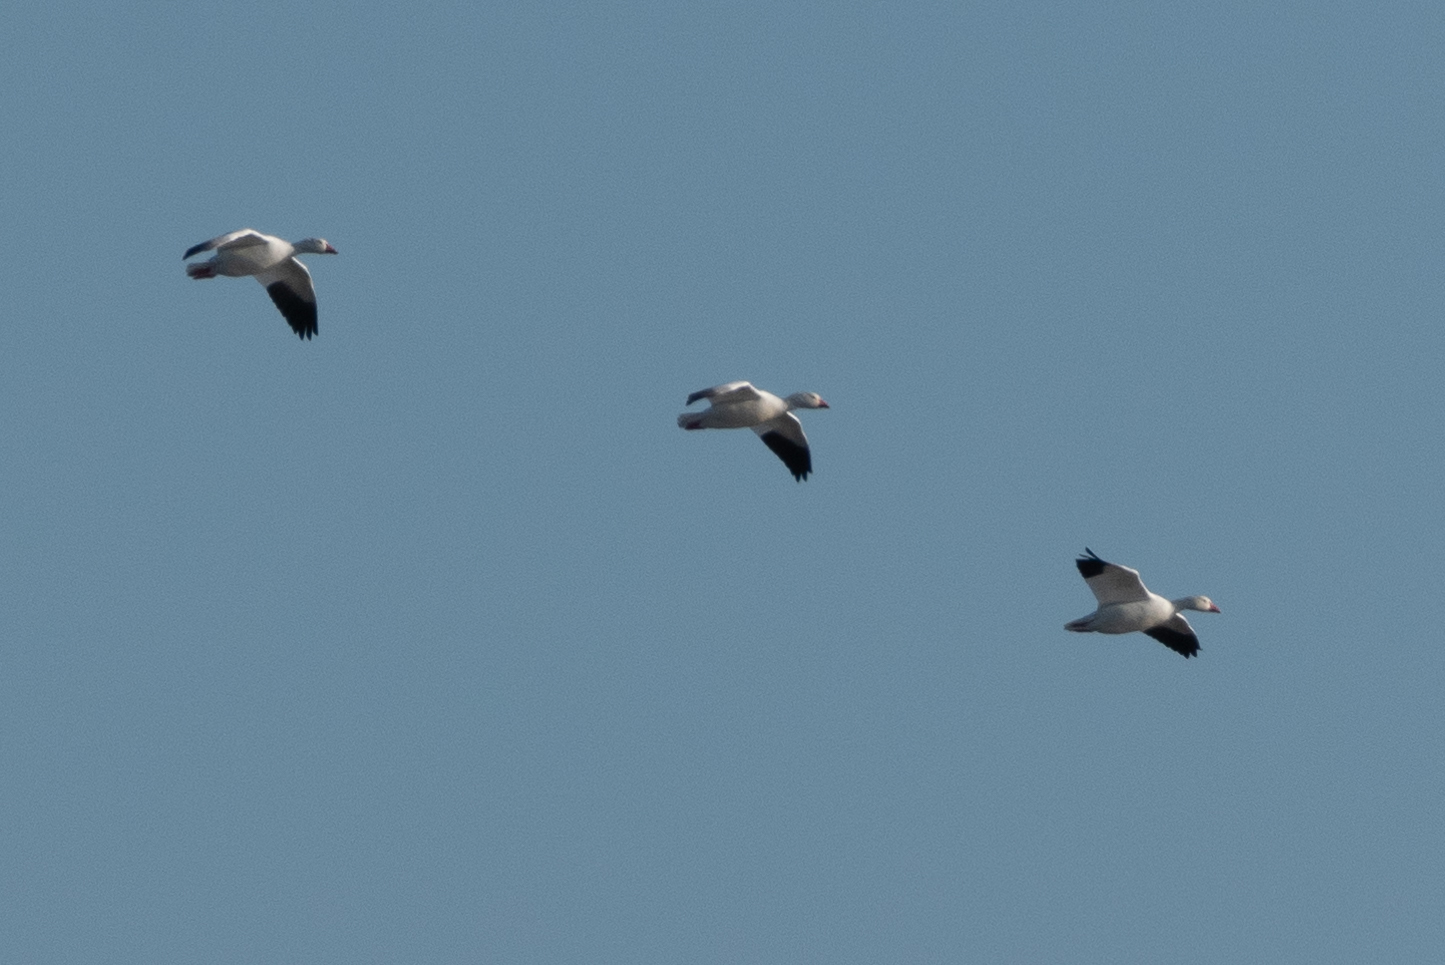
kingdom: Animalia
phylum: Chordata
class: Aves
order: Anseriformes
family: Anatidae
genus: Anser
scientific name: Anser caerulescens
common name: Snow goose
